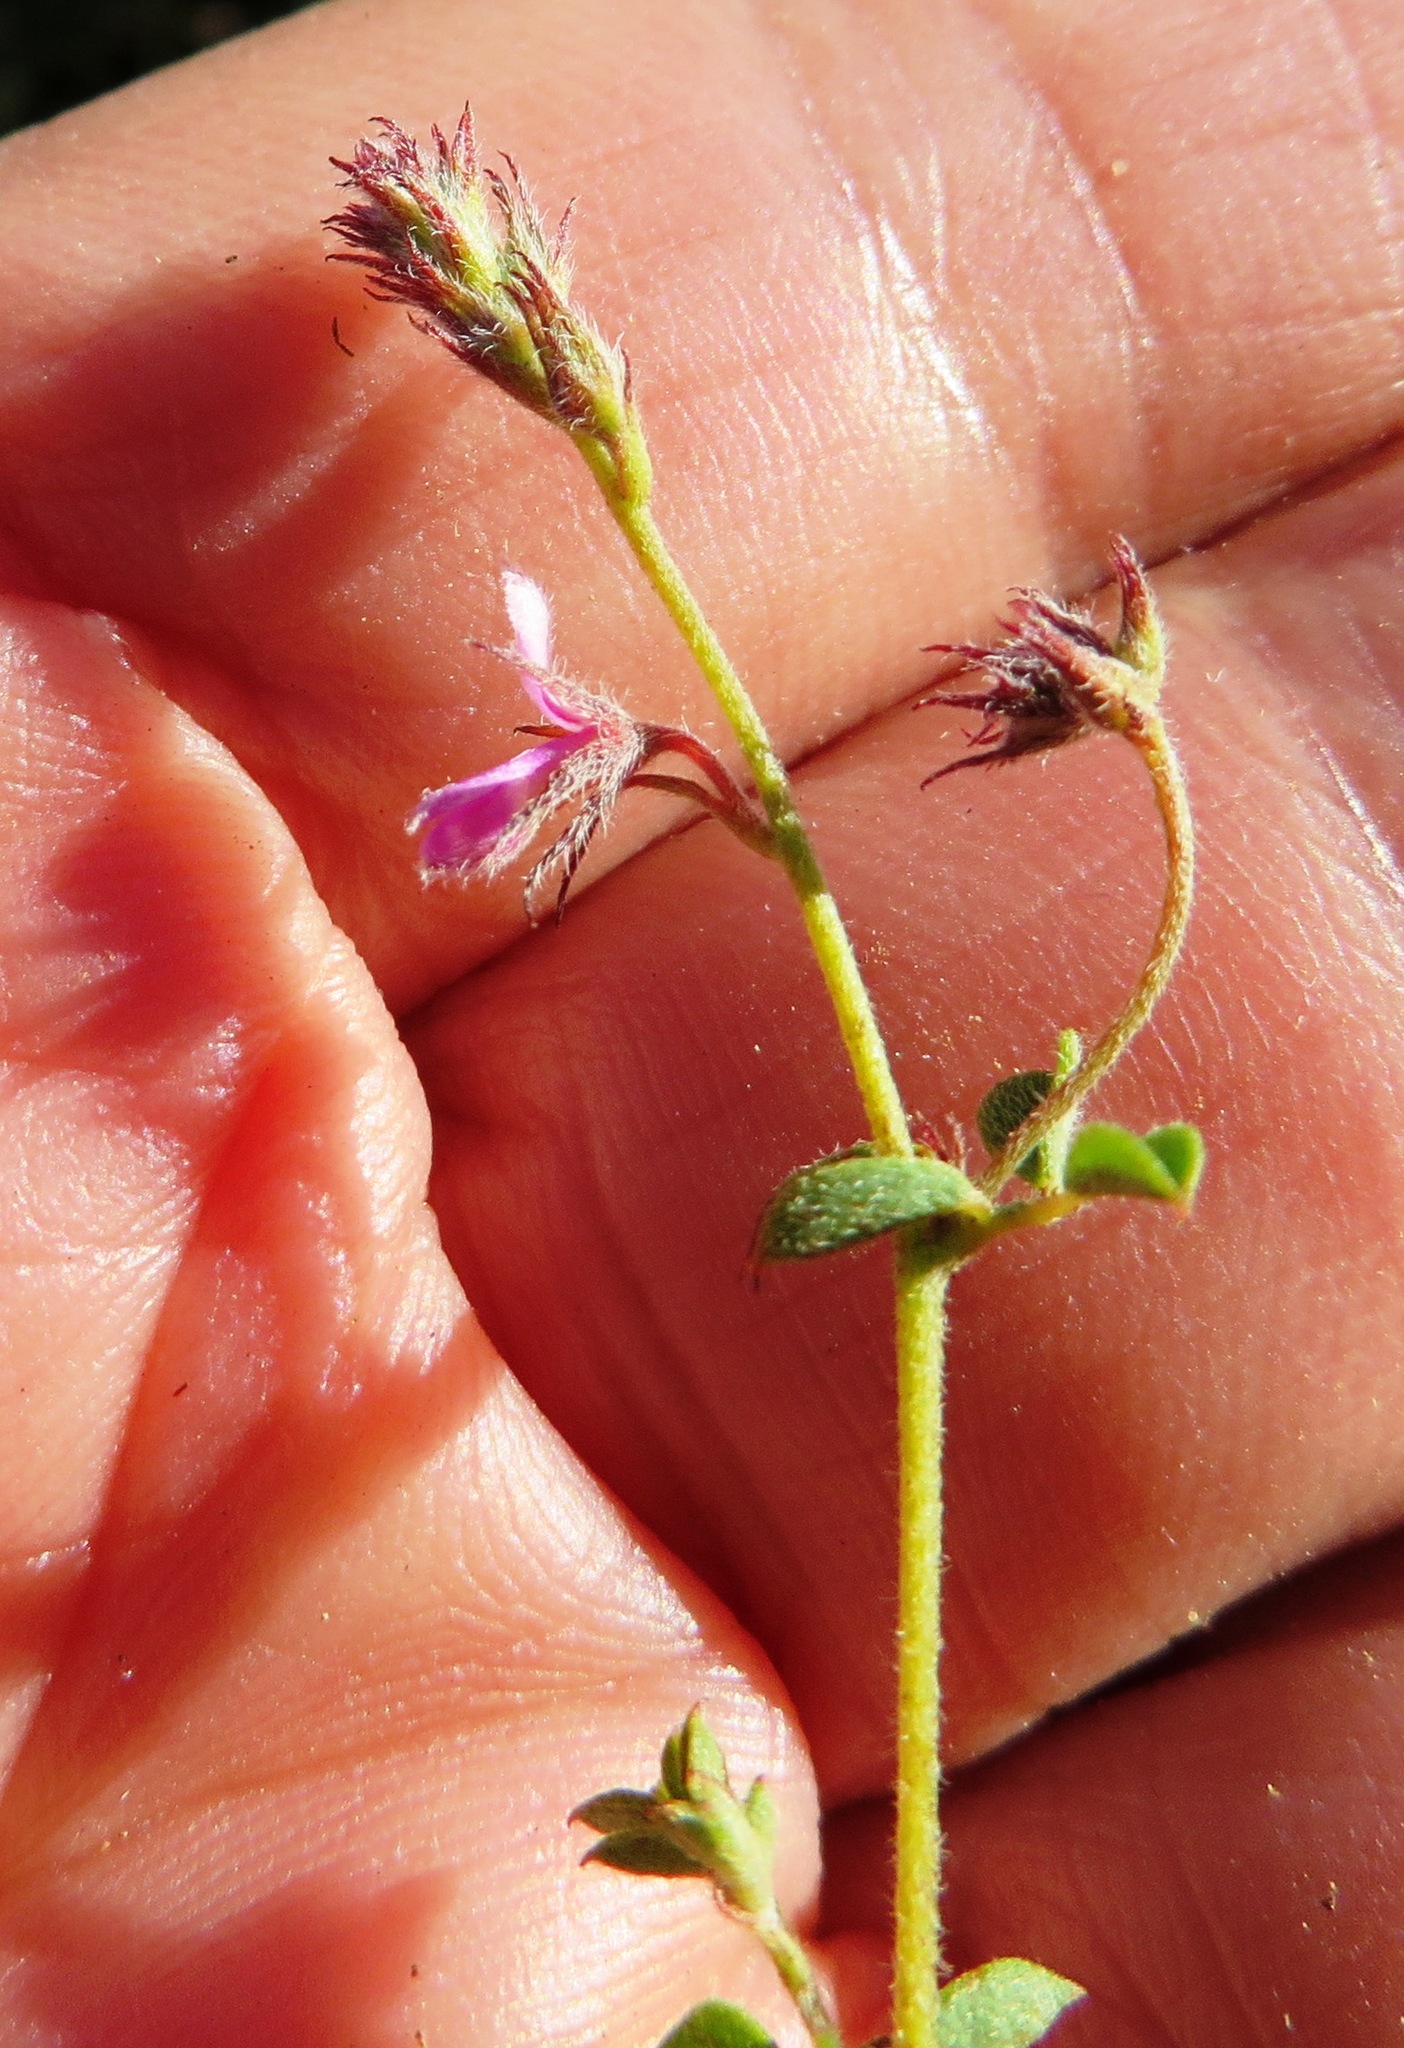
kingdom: Plantae
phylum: Tracheophyta
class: Magnoliopsida
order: Fabales
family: Fabaceae
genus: Indigofera
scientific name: Indigofera alopecuroides
